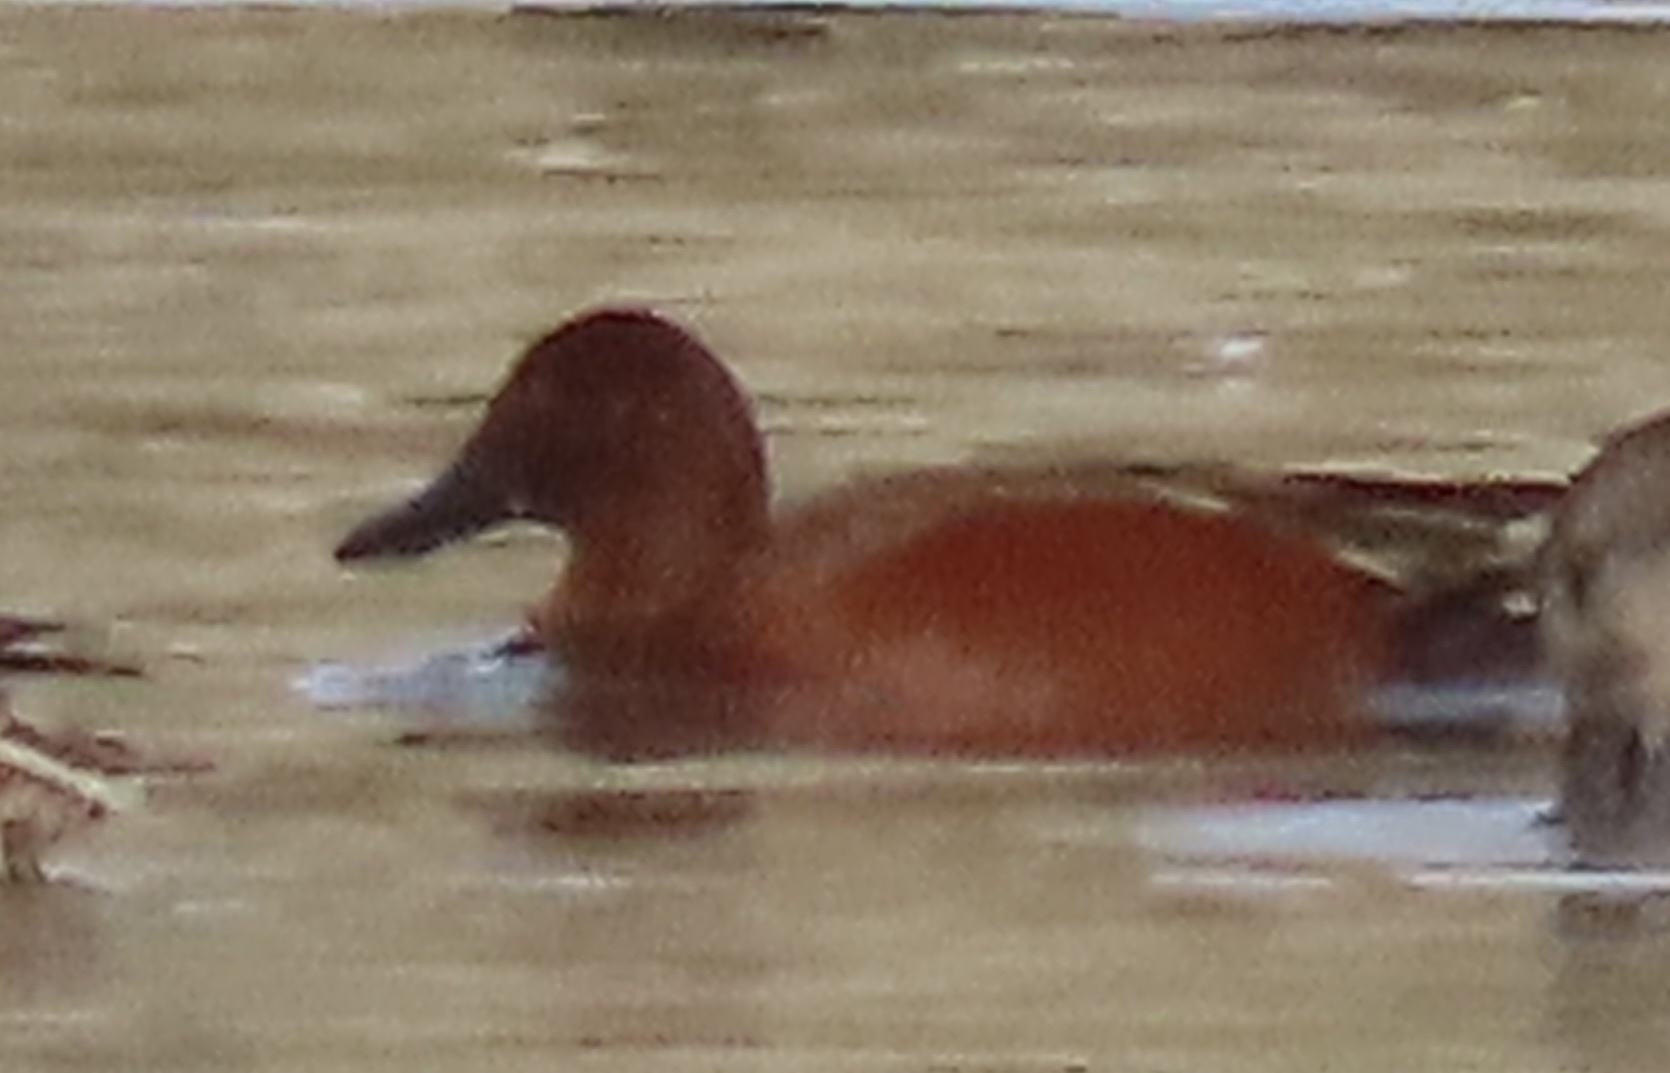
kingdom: Animalia
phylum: Chordata
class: Aves
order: Anseriformes
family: Anatidae
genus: Spatula
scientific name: Spatula cyanoptera
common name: Cinnamon teal
